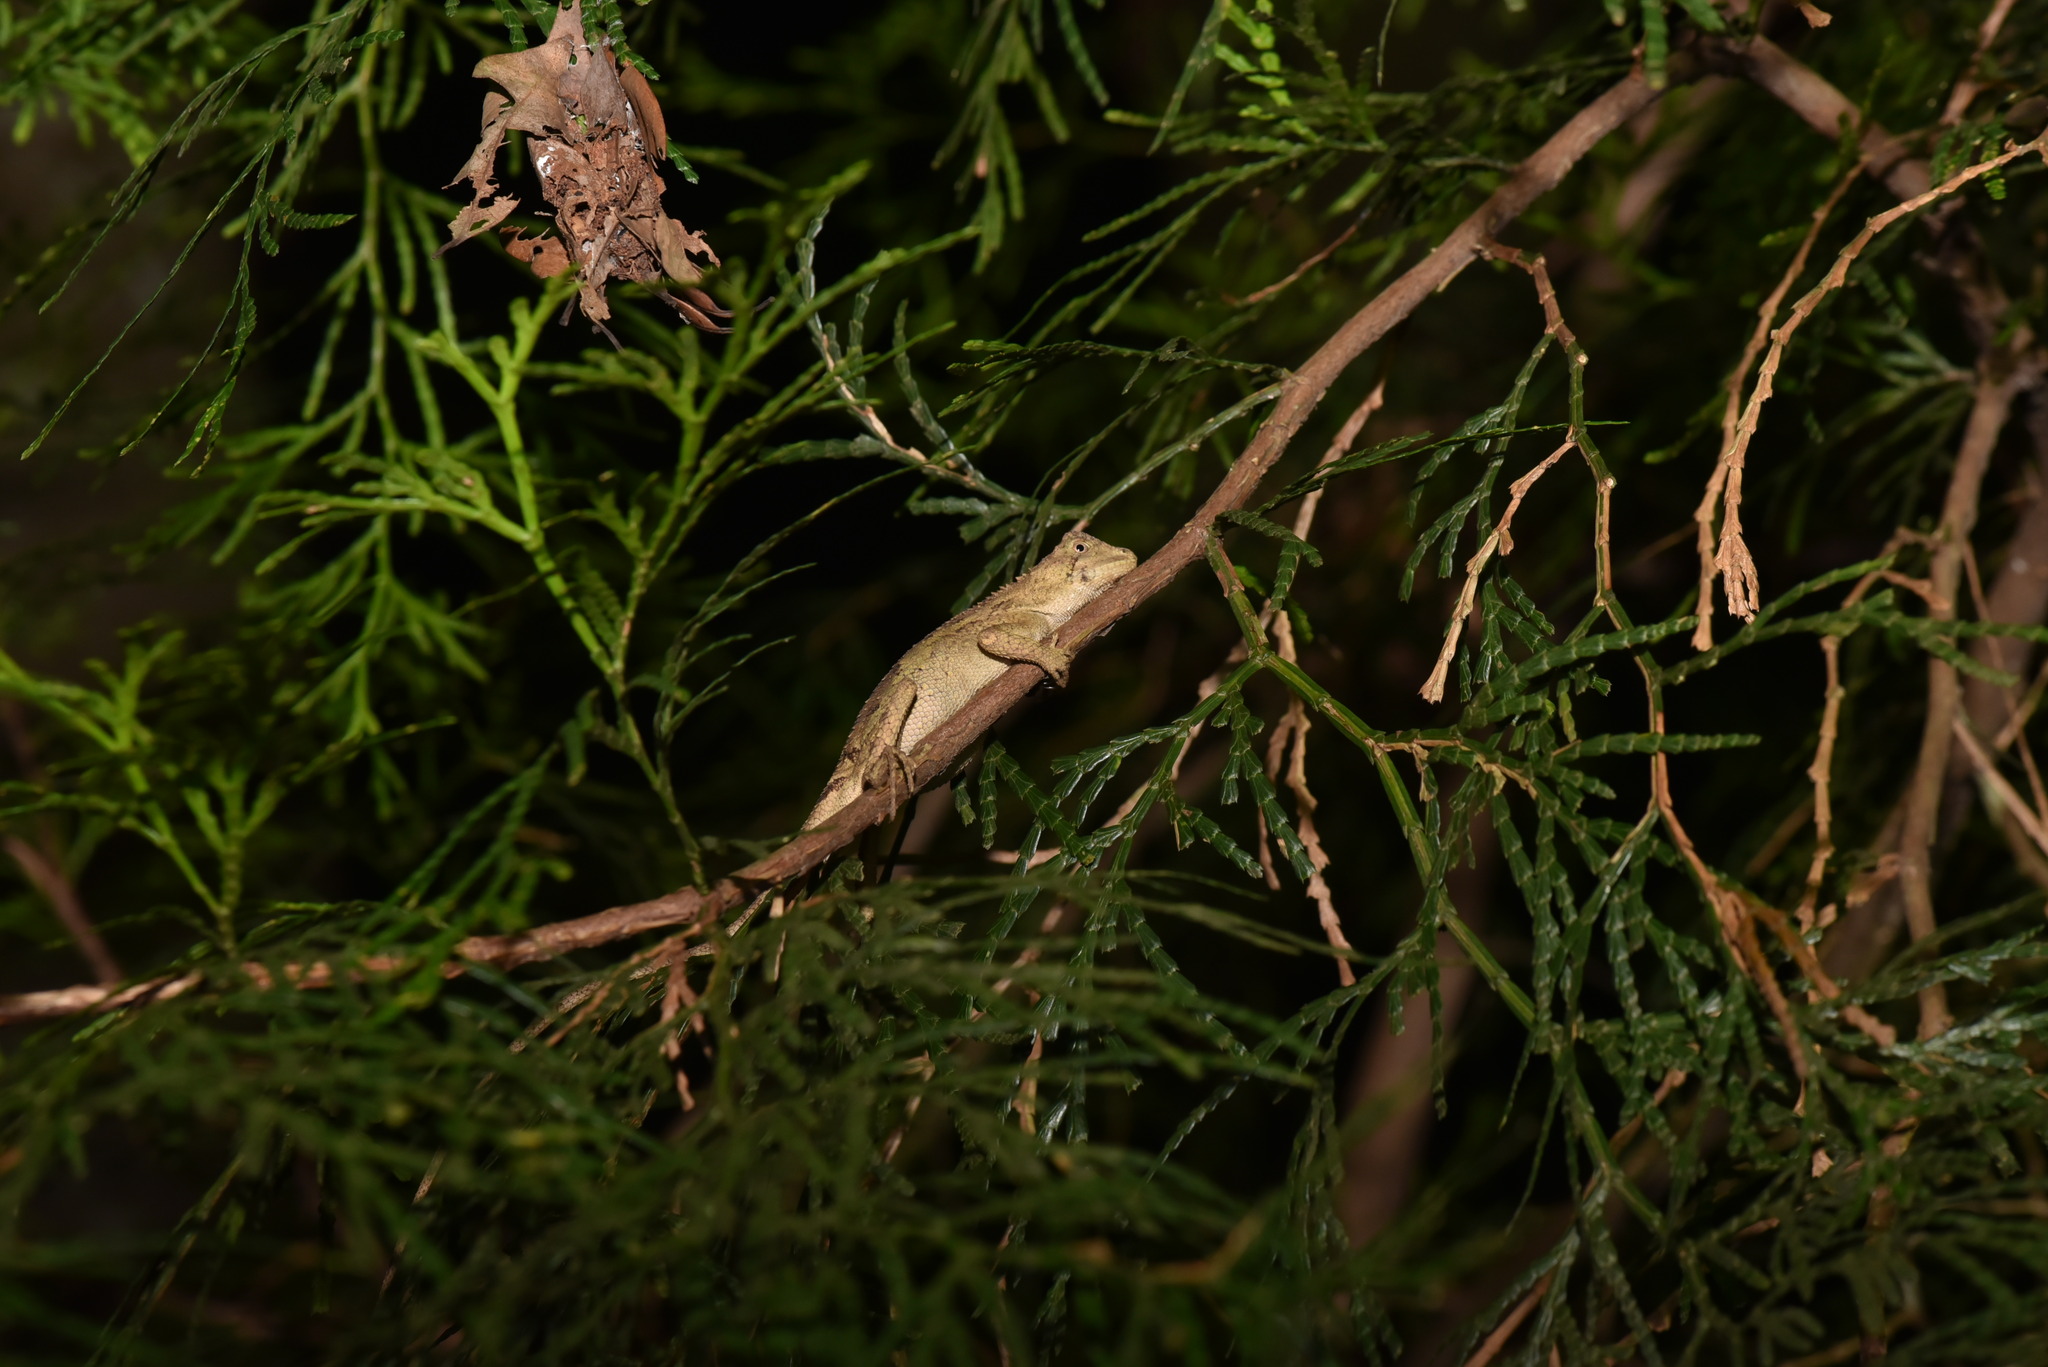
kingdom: Animalia
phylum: Chordata
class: Squamata
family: Agamidae
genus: Diploderma
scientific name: Diploderma swinhonis
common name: Taiwan japalure
